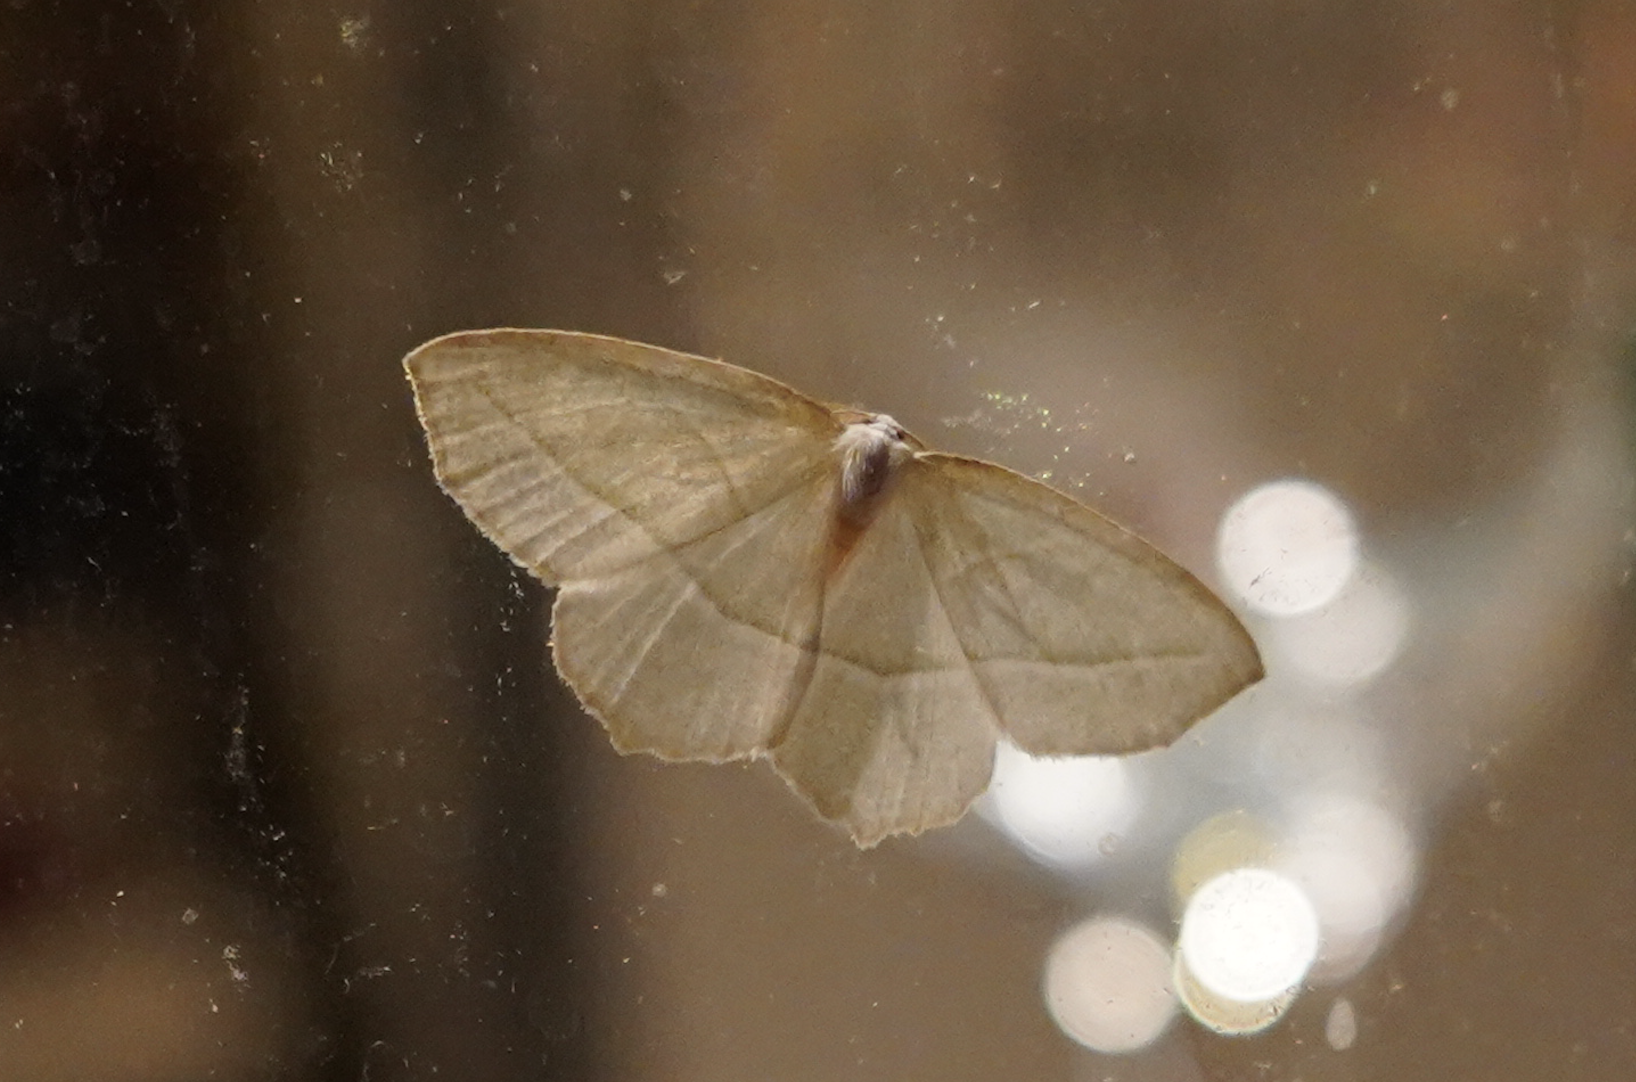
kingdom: Animalia
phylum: Arthropoda
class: Insecta
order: Lepidoptera
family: Geometridae
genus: Campaea
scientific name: Campaea perlata
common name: Fringed looper
